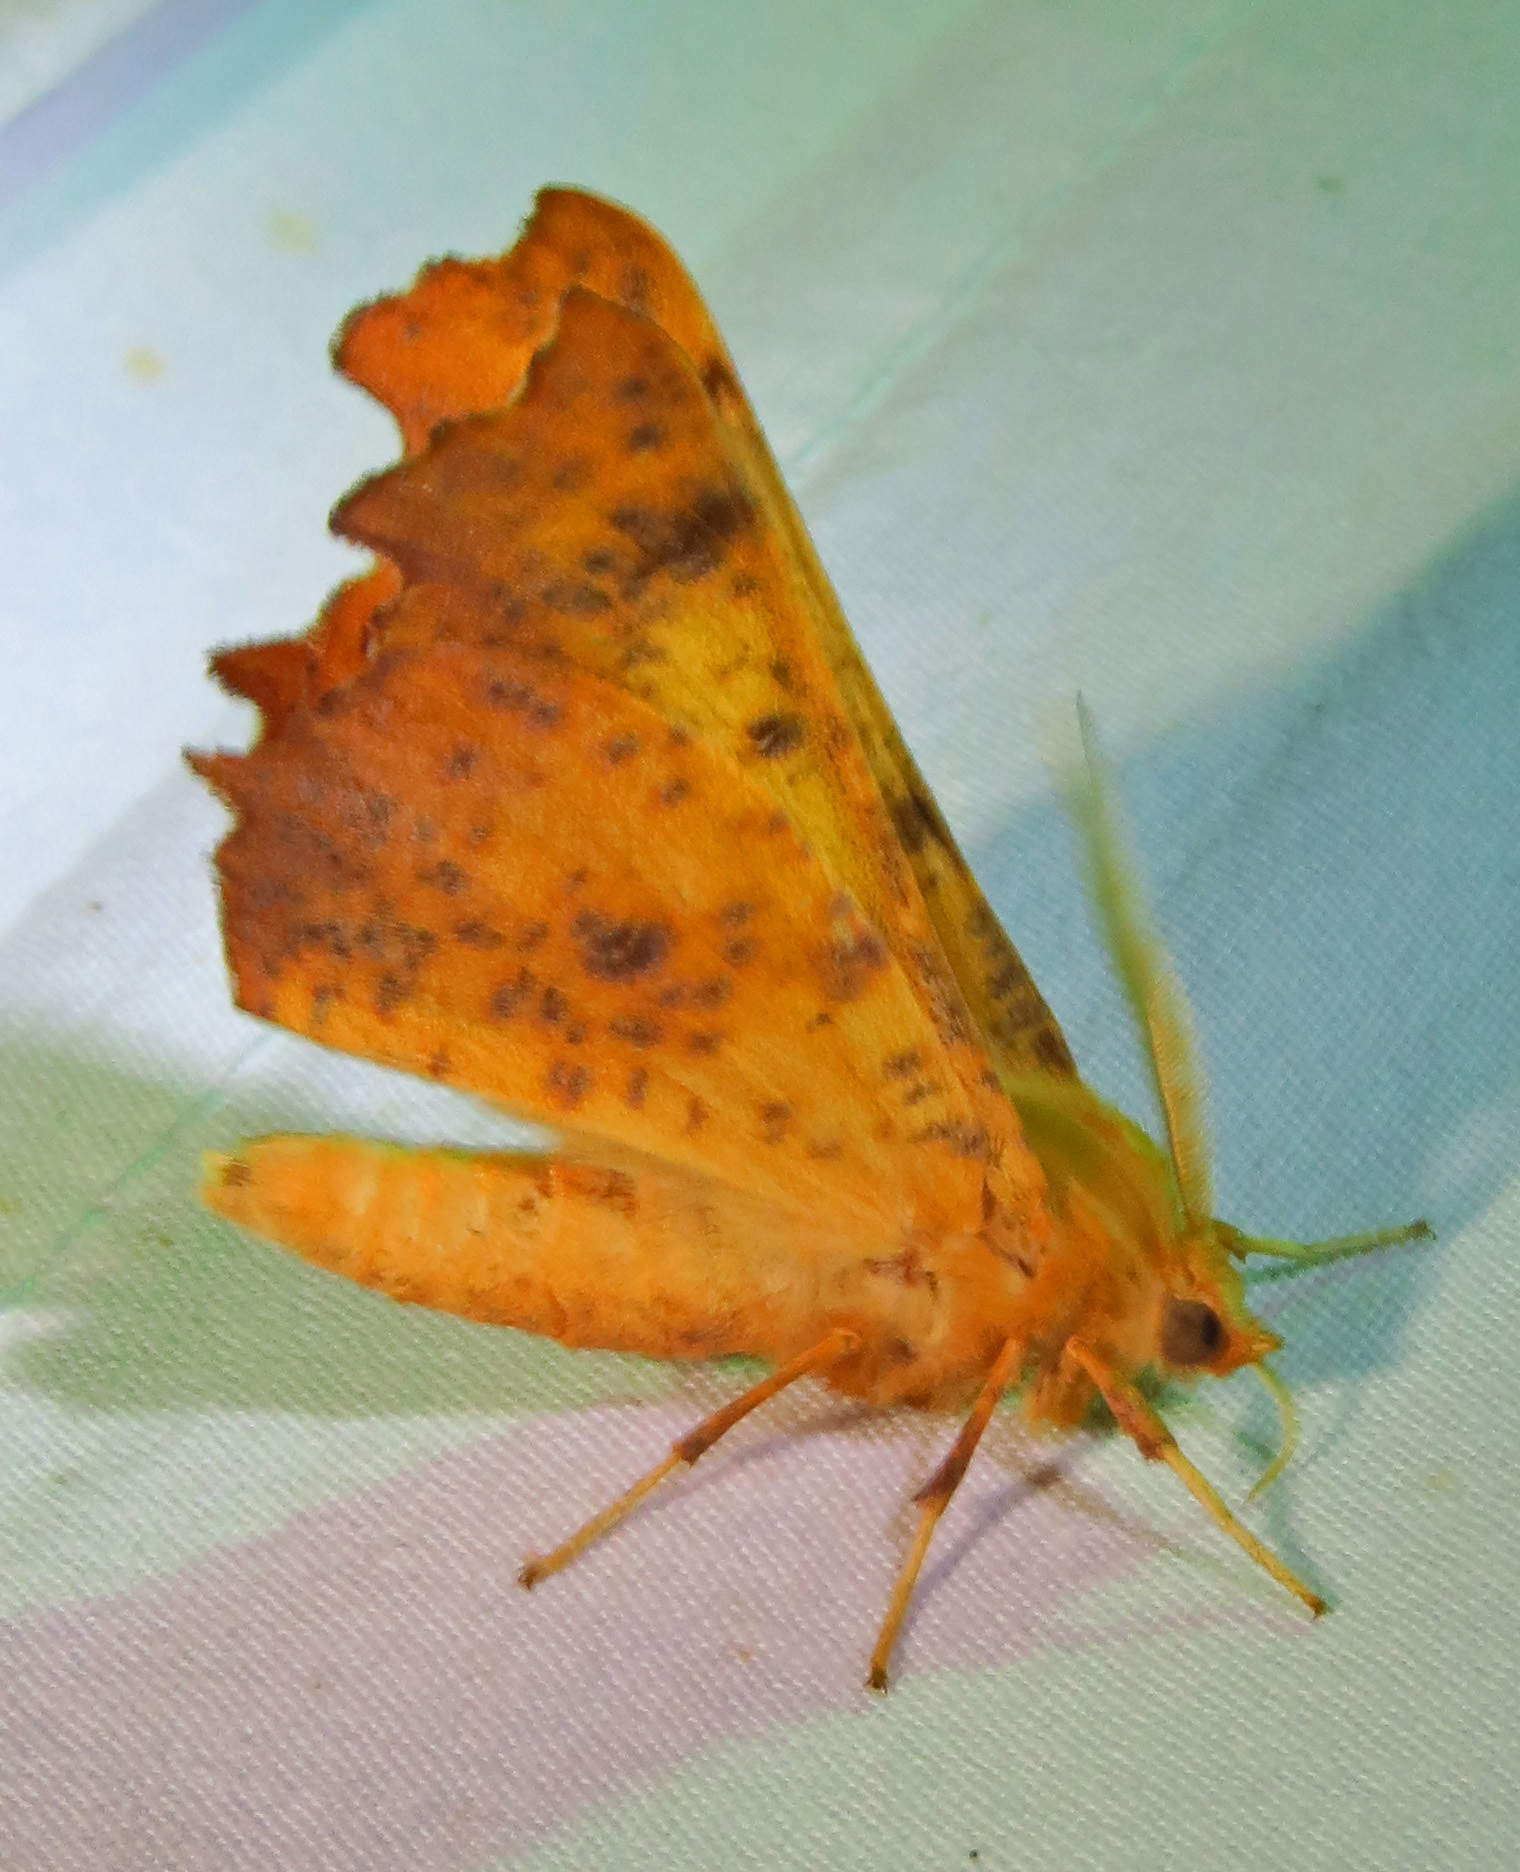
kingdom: Animalia
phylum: Arthropoda
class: Insecta
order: Lepidoptera
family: Geometridae
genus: Ennomos
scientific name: Ennomos magnaria
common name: Maple spanworm
